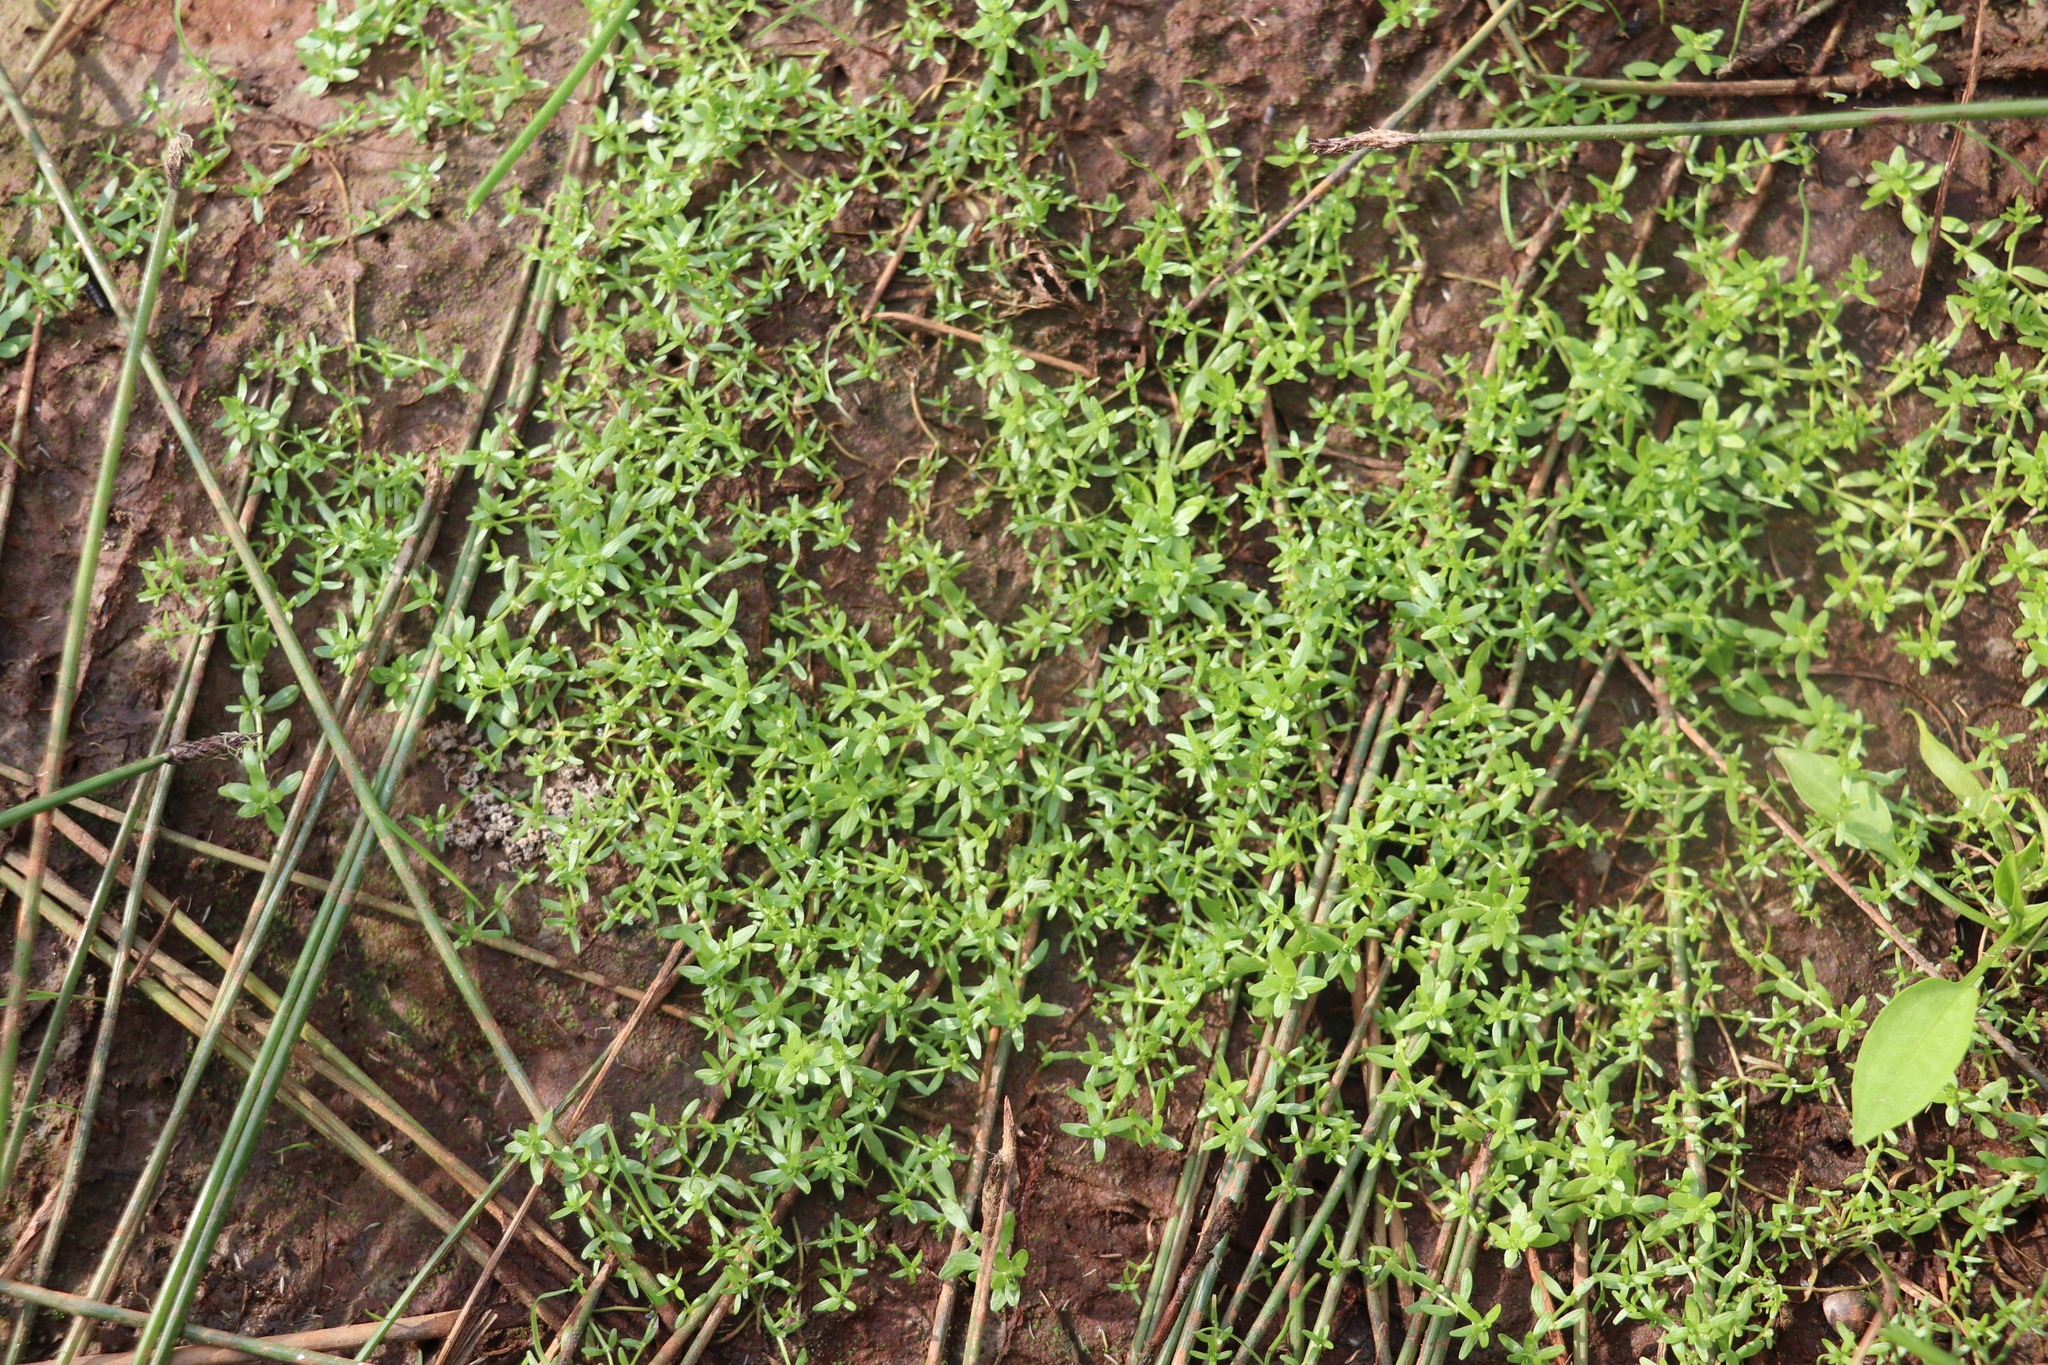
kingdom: Plantae
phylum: Tracheophyta
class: Magnoliopsida
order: Lamiales
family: Plantaginaceae
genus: Callitriche
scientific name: Callitriche palustris
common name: Spring water-starwort
